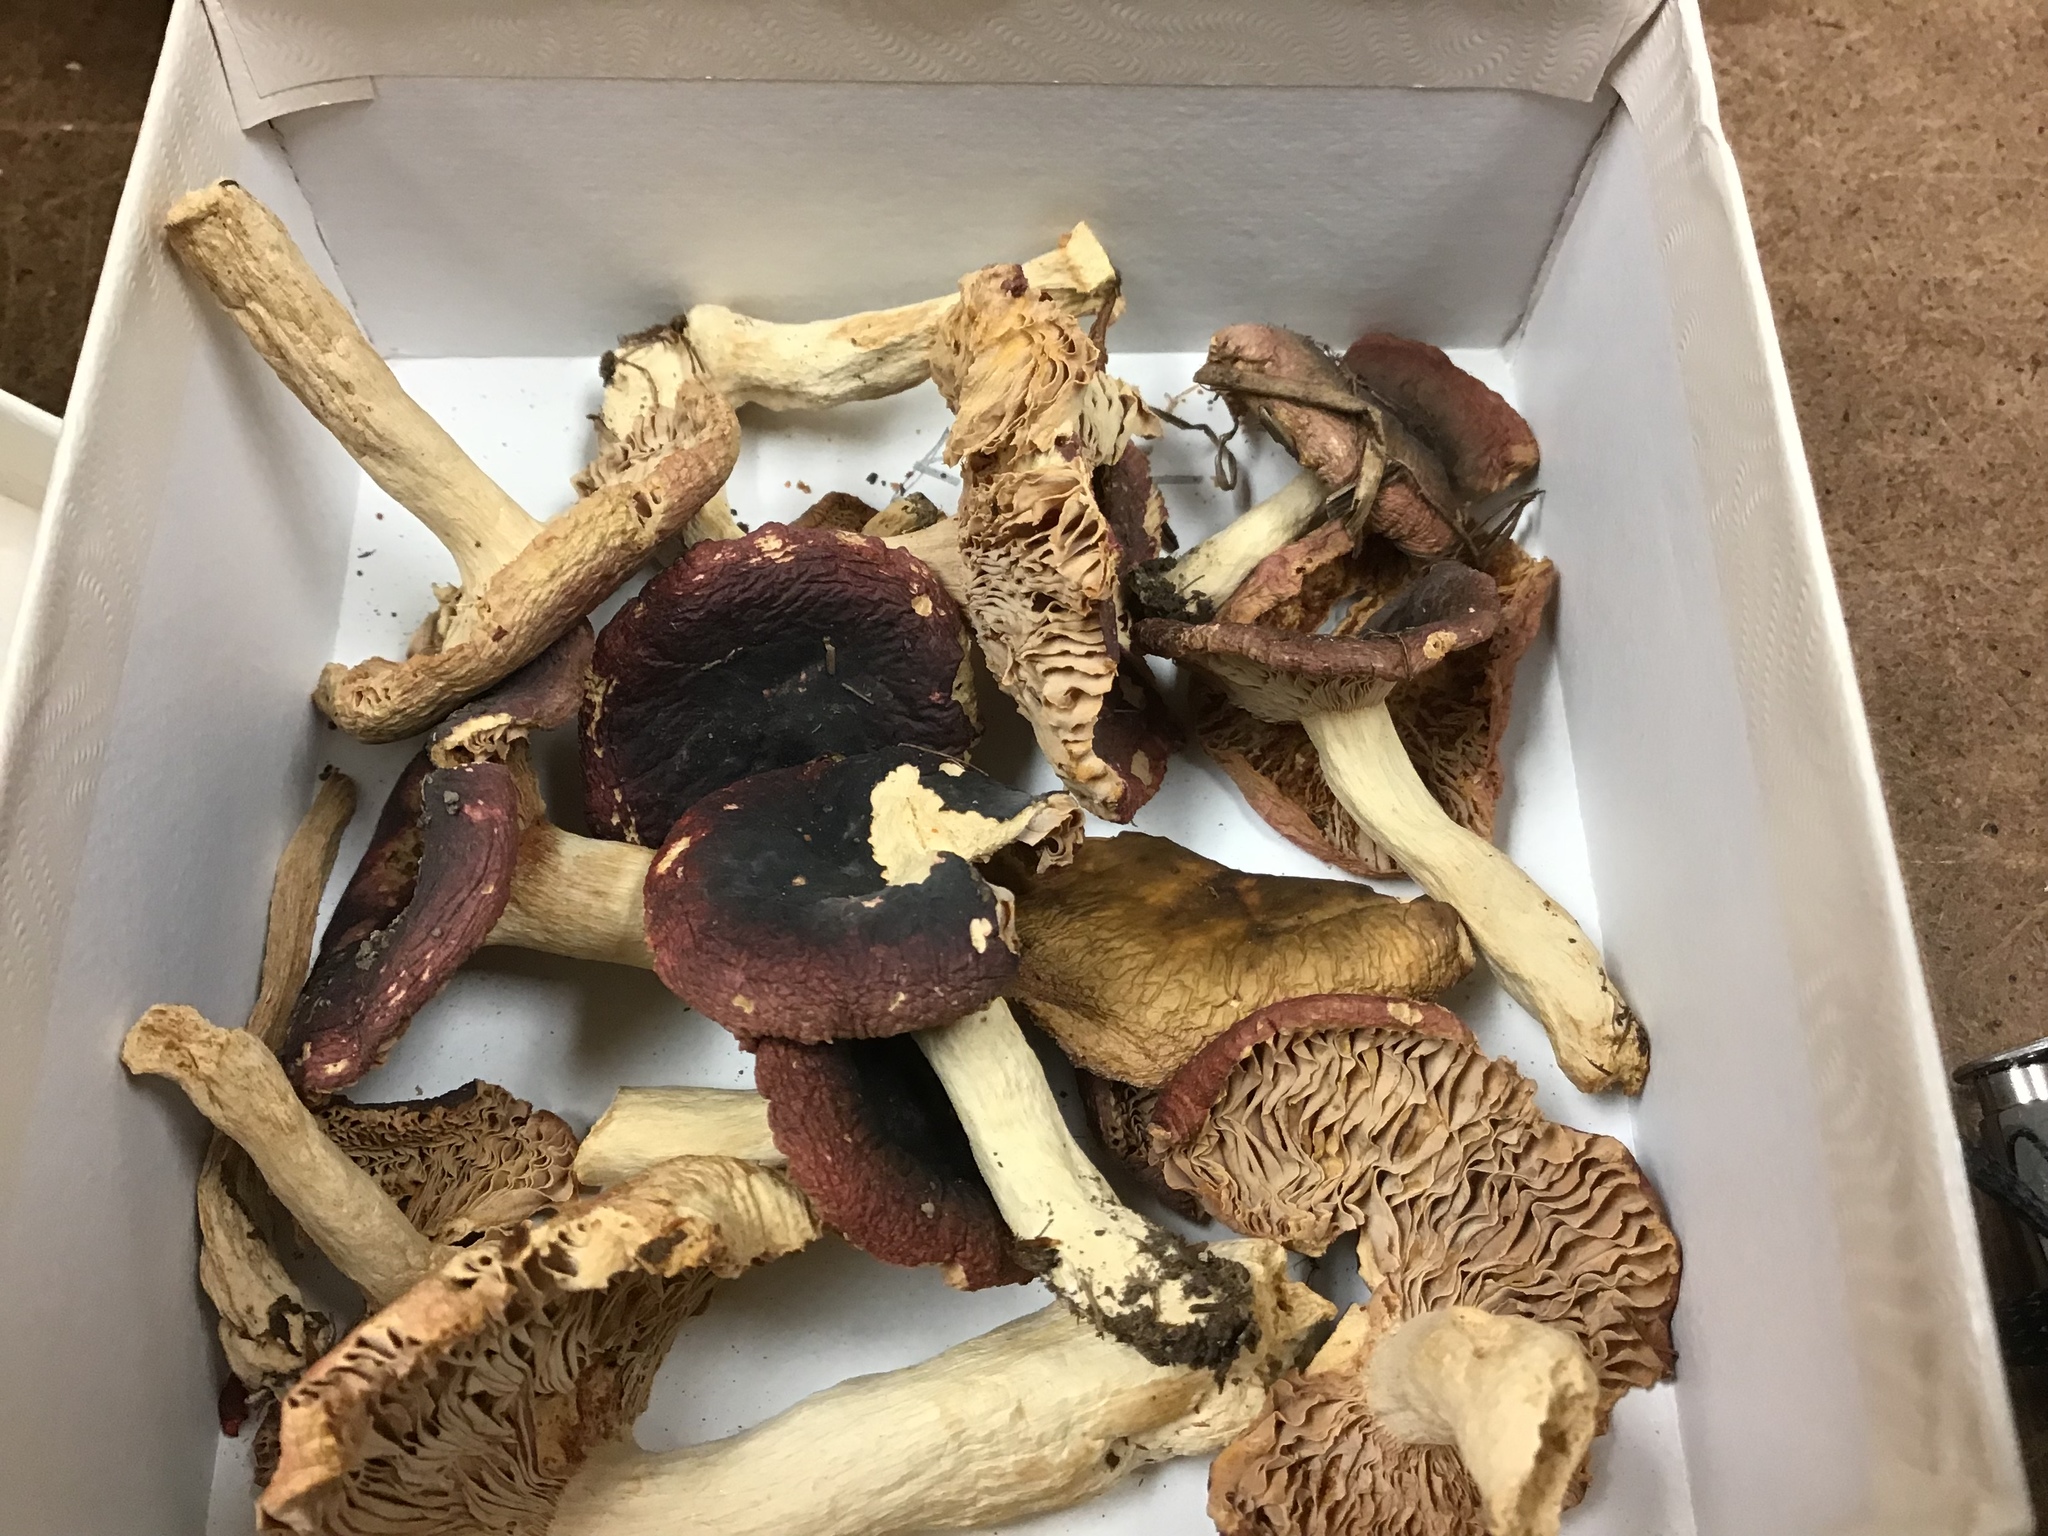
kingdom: Fungi
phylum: Basidiomycota
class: Agaricomycetes
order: Russulales
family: Russulaceae
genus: Russula
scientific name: Russula fragilis
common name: Fragile brittlegill
